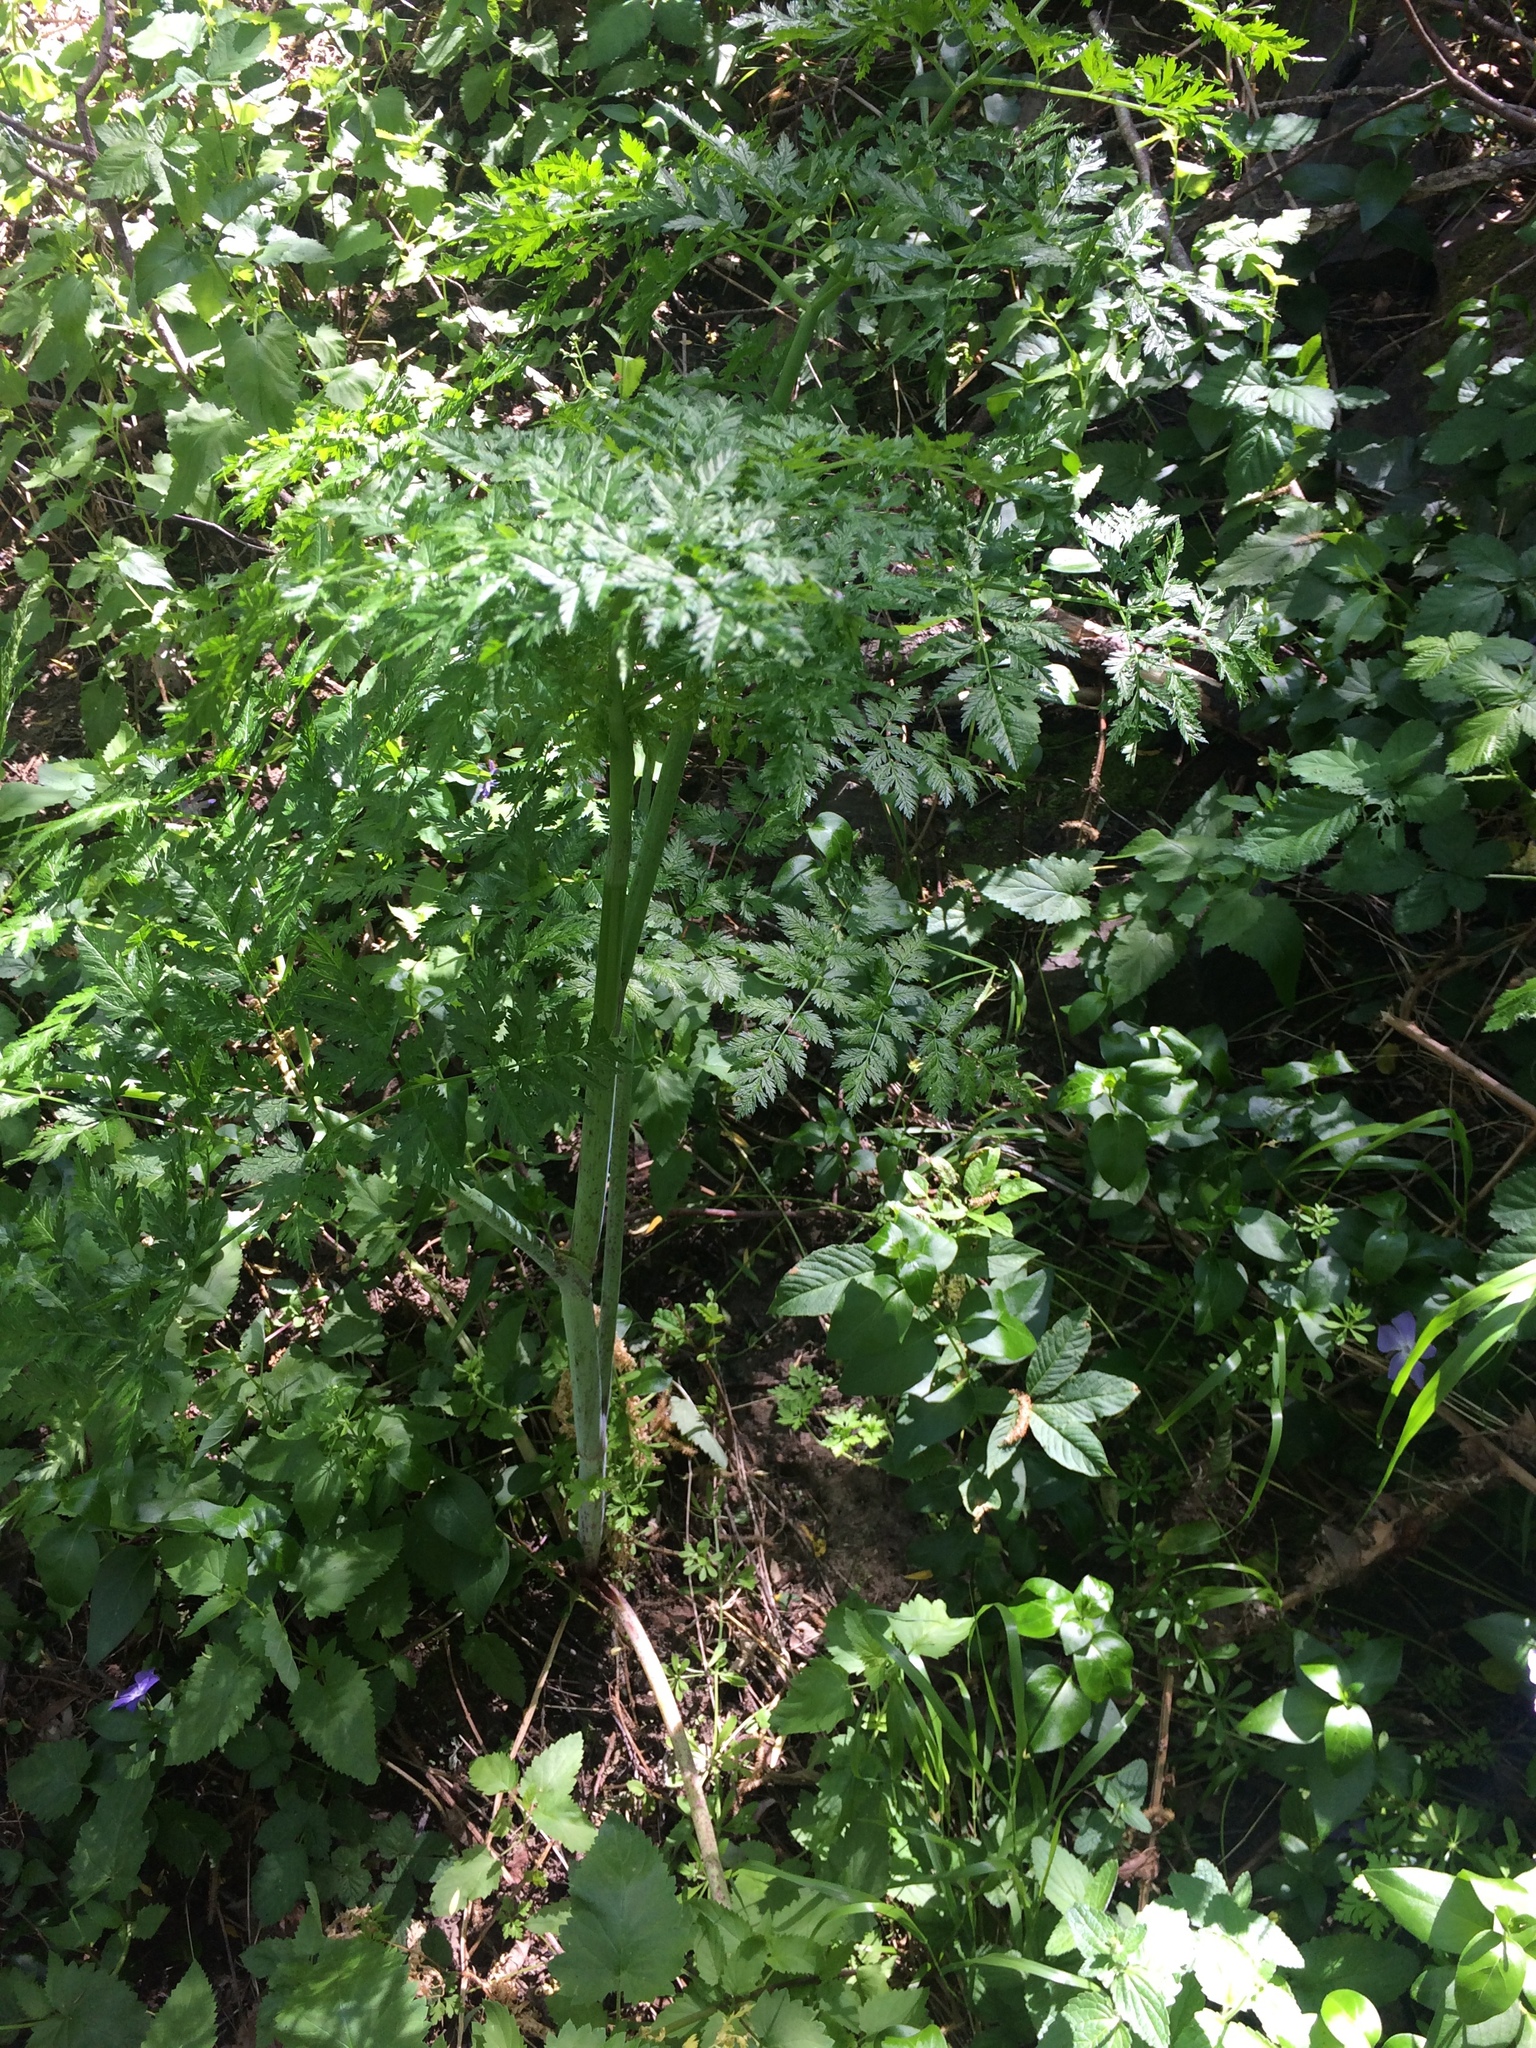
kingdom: Plantae
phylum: Tracheophyta
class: Magnoliopsida
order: Apiales
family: Apiaceae
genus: Conium
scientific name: Conium maculatum
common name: Hemlock
